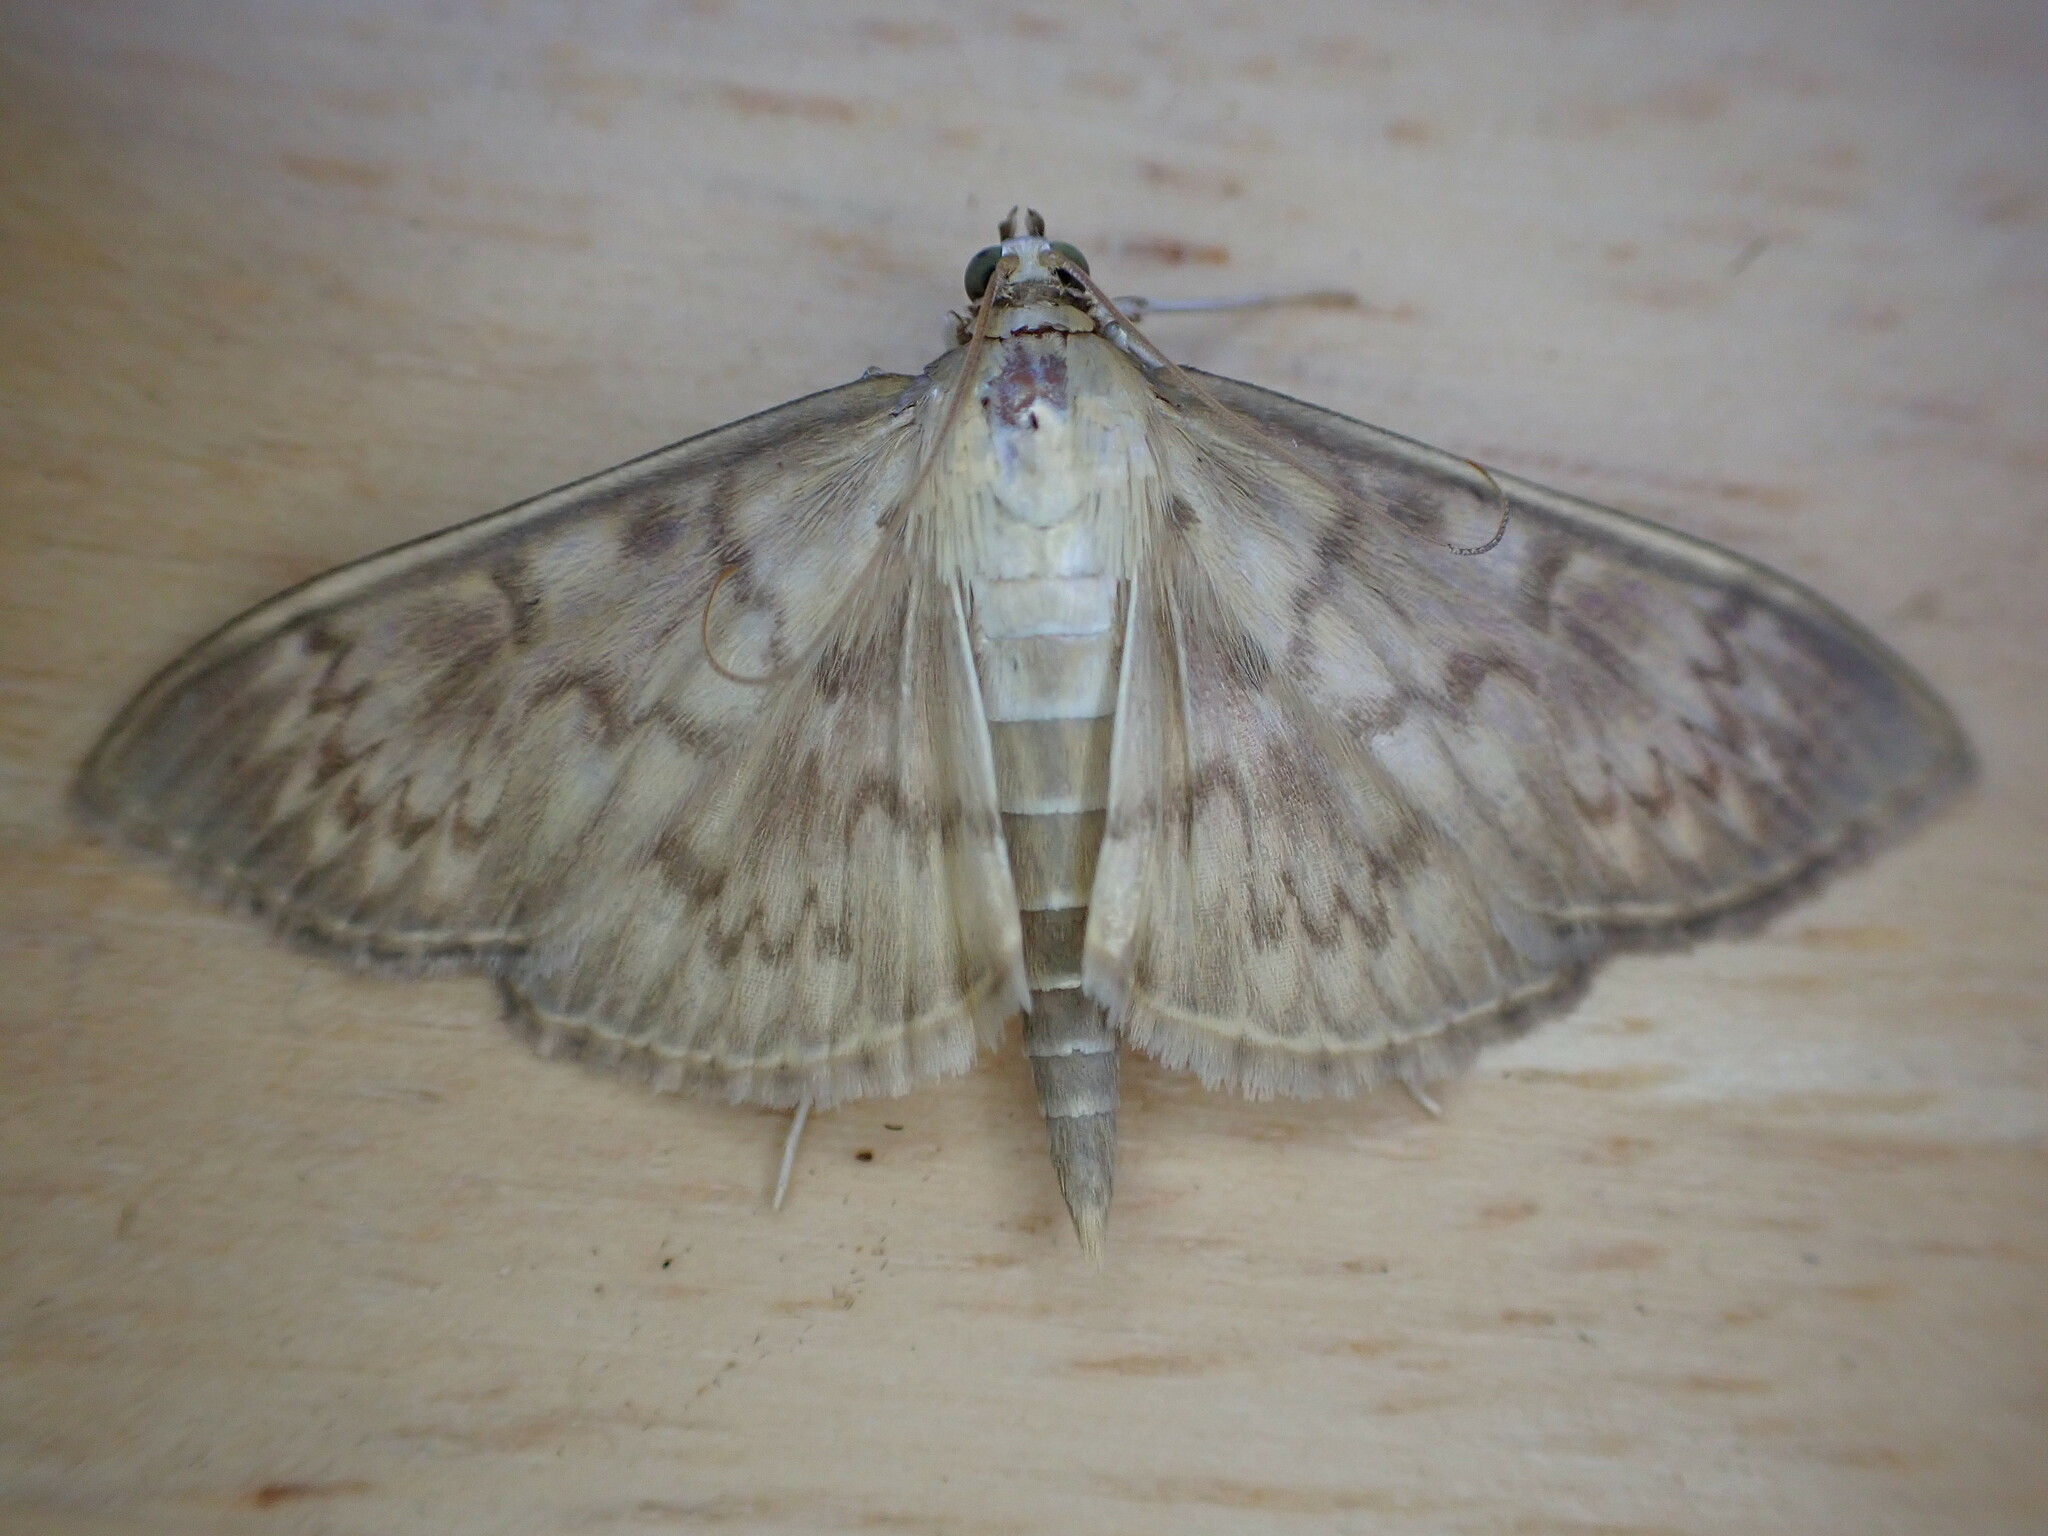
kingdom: Animalia
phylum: Arthropoda
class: Insecta
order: Lepidoptera
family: Crambidae
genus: Patania
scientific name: Patania ruralis
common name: Mother of pearl
